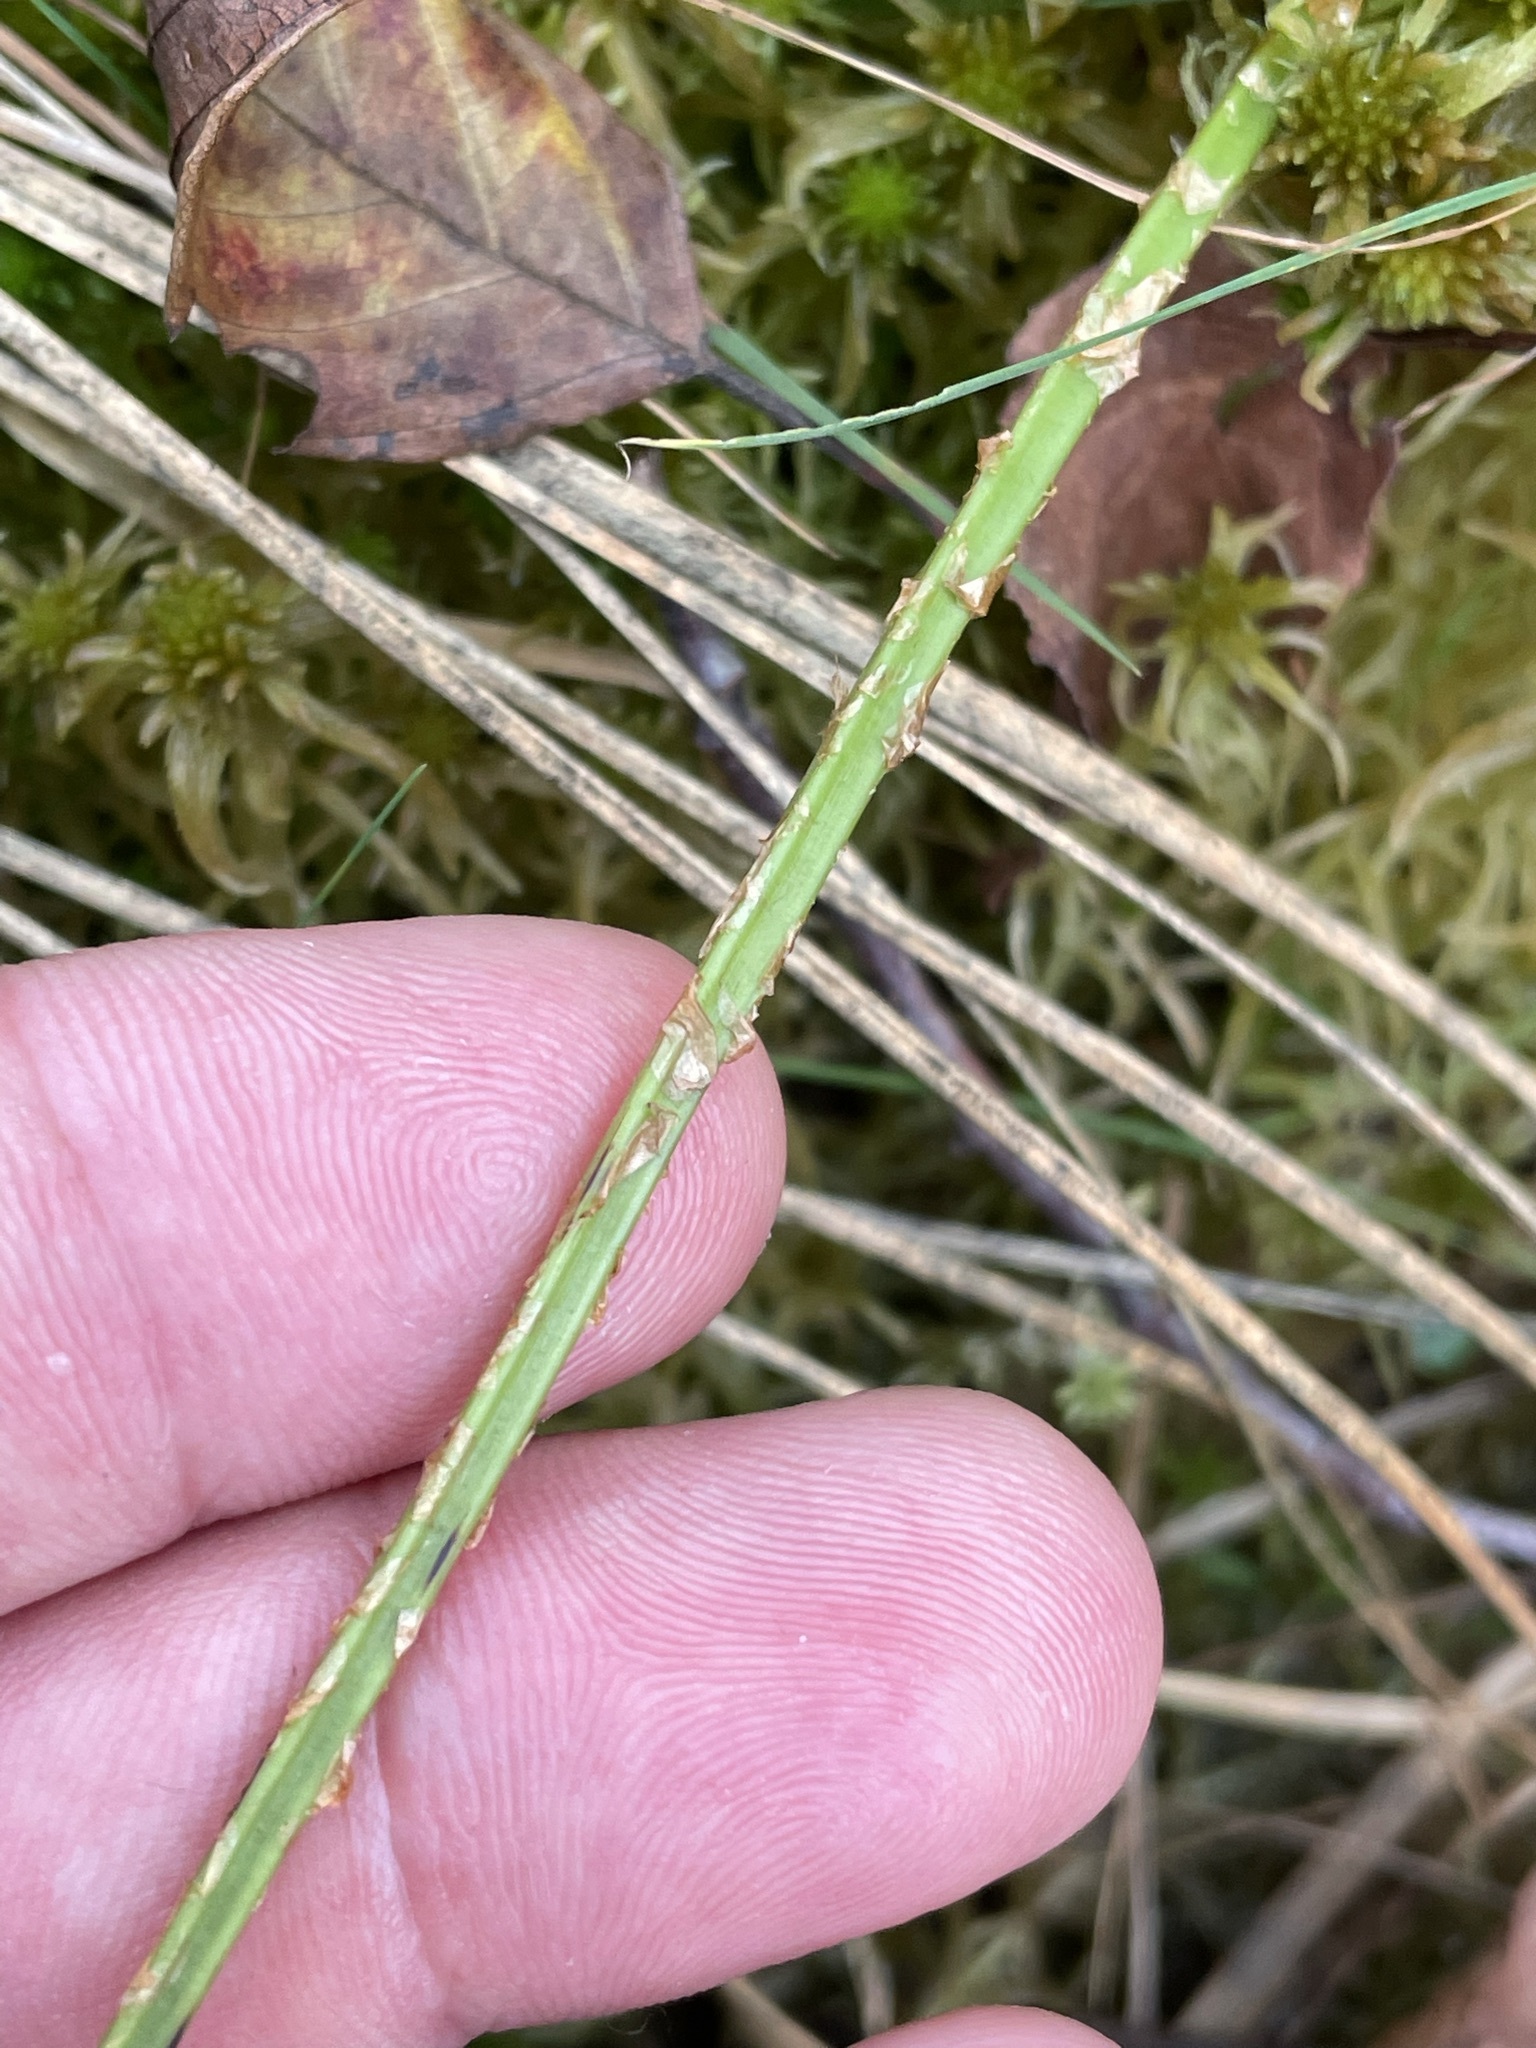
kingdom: Plantae
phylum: Tracheophyta
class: Polypodiopsida
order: Polypodiales
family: Dryopteridaceae
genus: Dryopteris
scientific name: Dryopteris carthusiana
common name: Narrow buckler-fern
